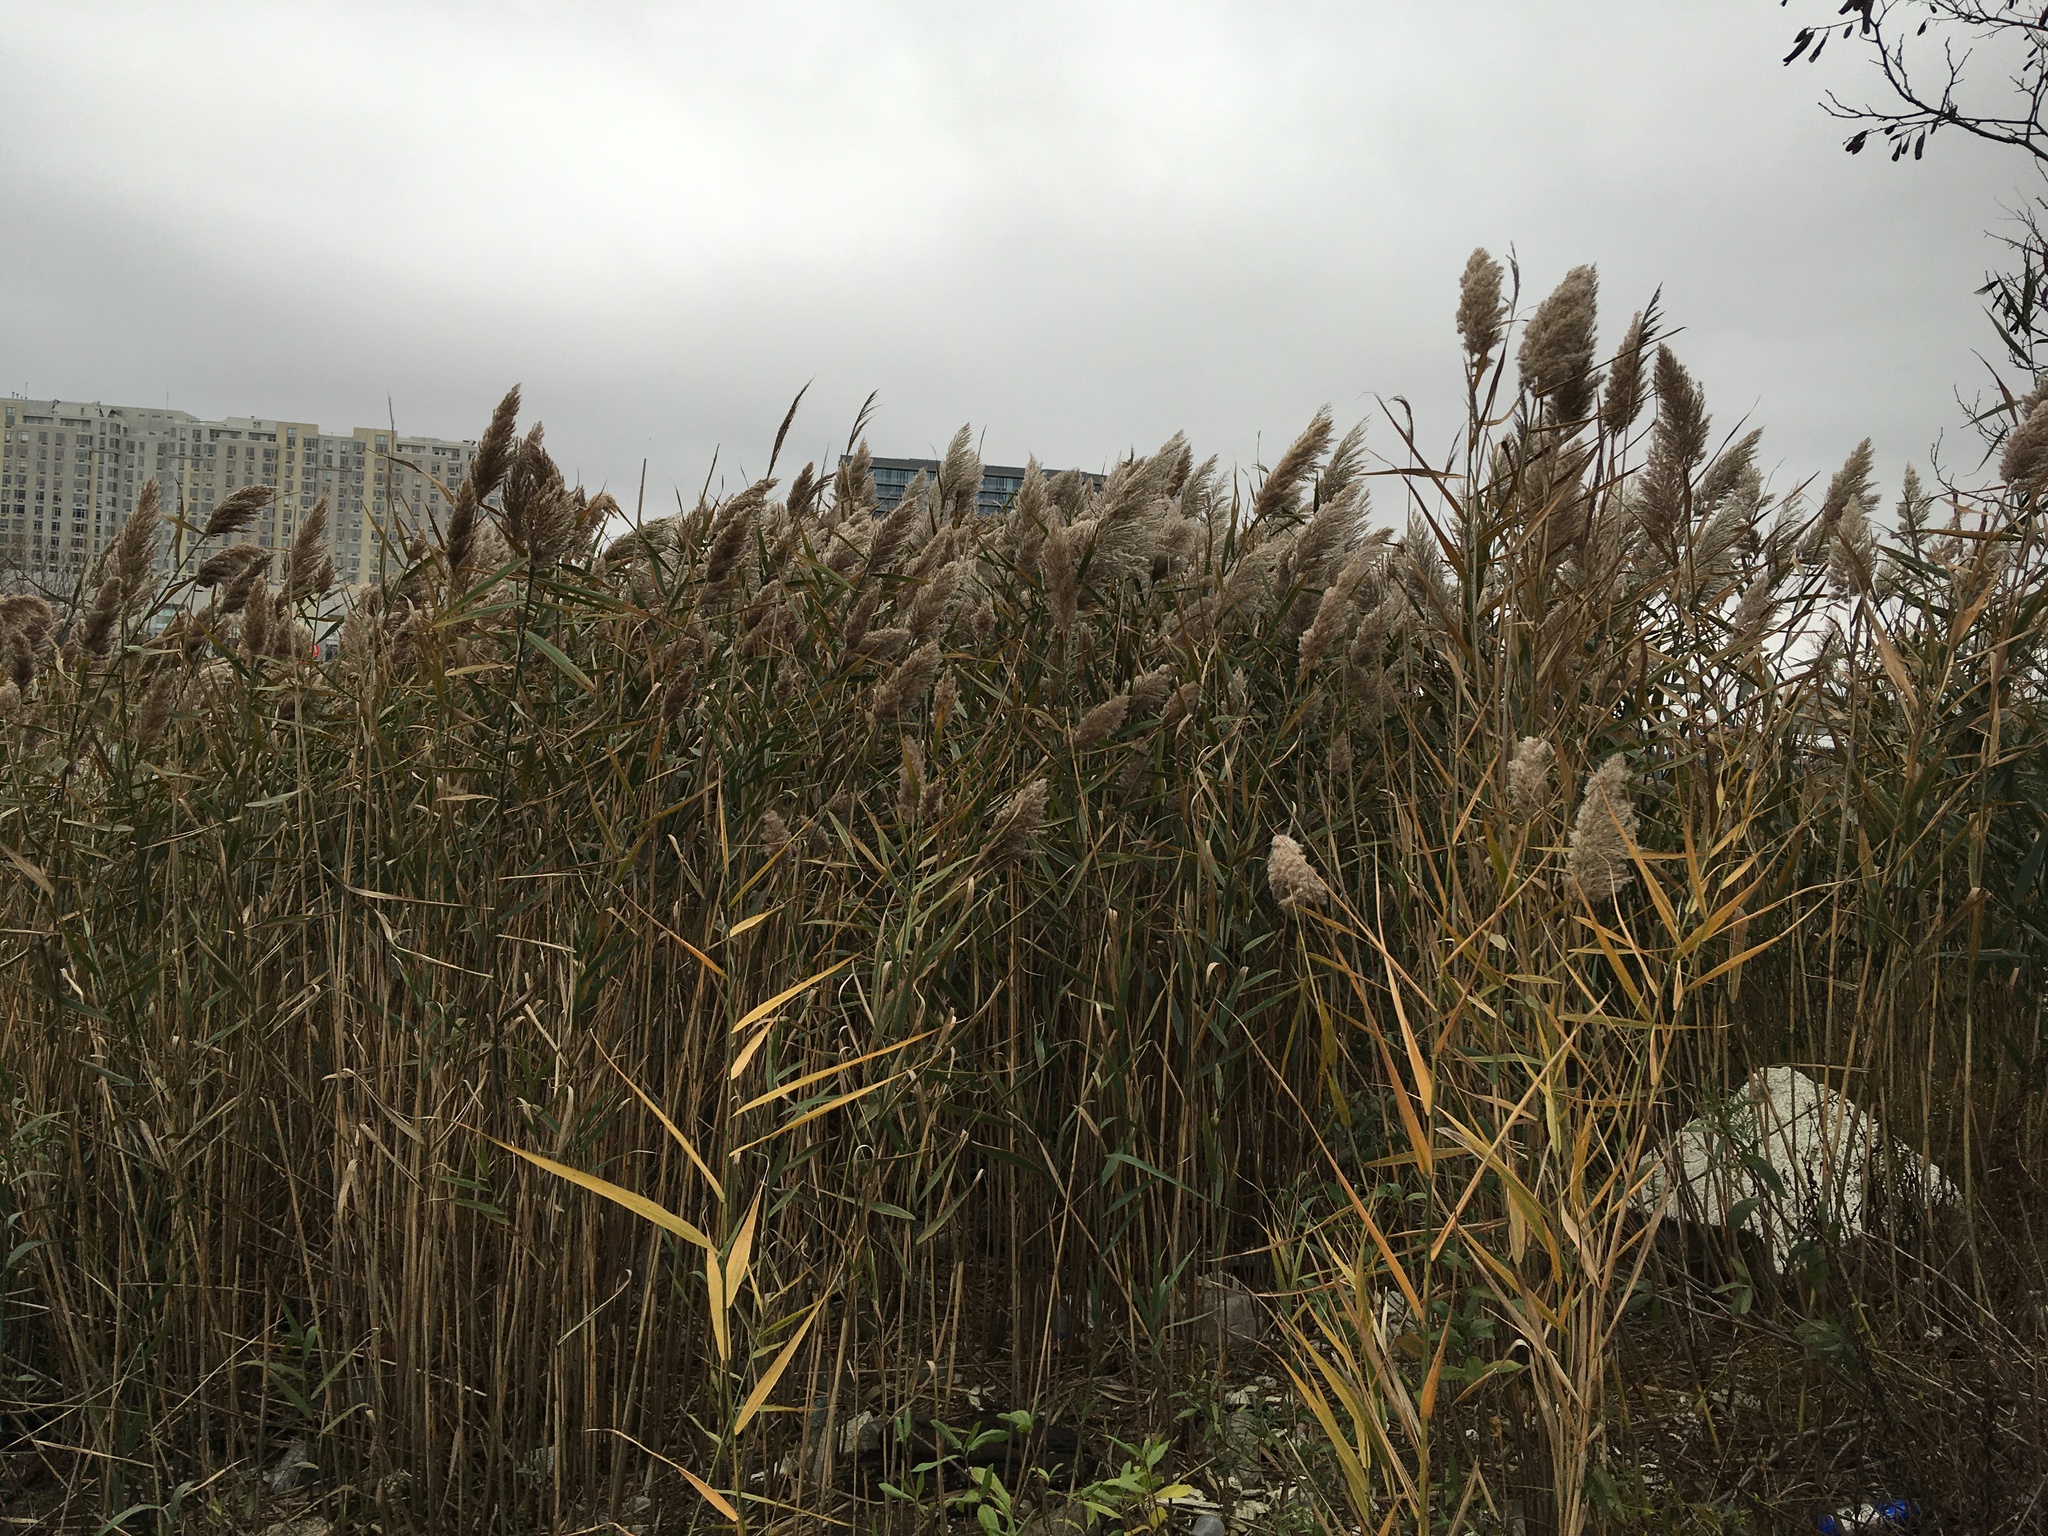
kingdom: Plantae
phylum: Tracheophyta
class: Liliopsida
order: Poales
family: Poaceae
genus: Phragmites
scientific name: Phragmites australis
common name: Common reed
